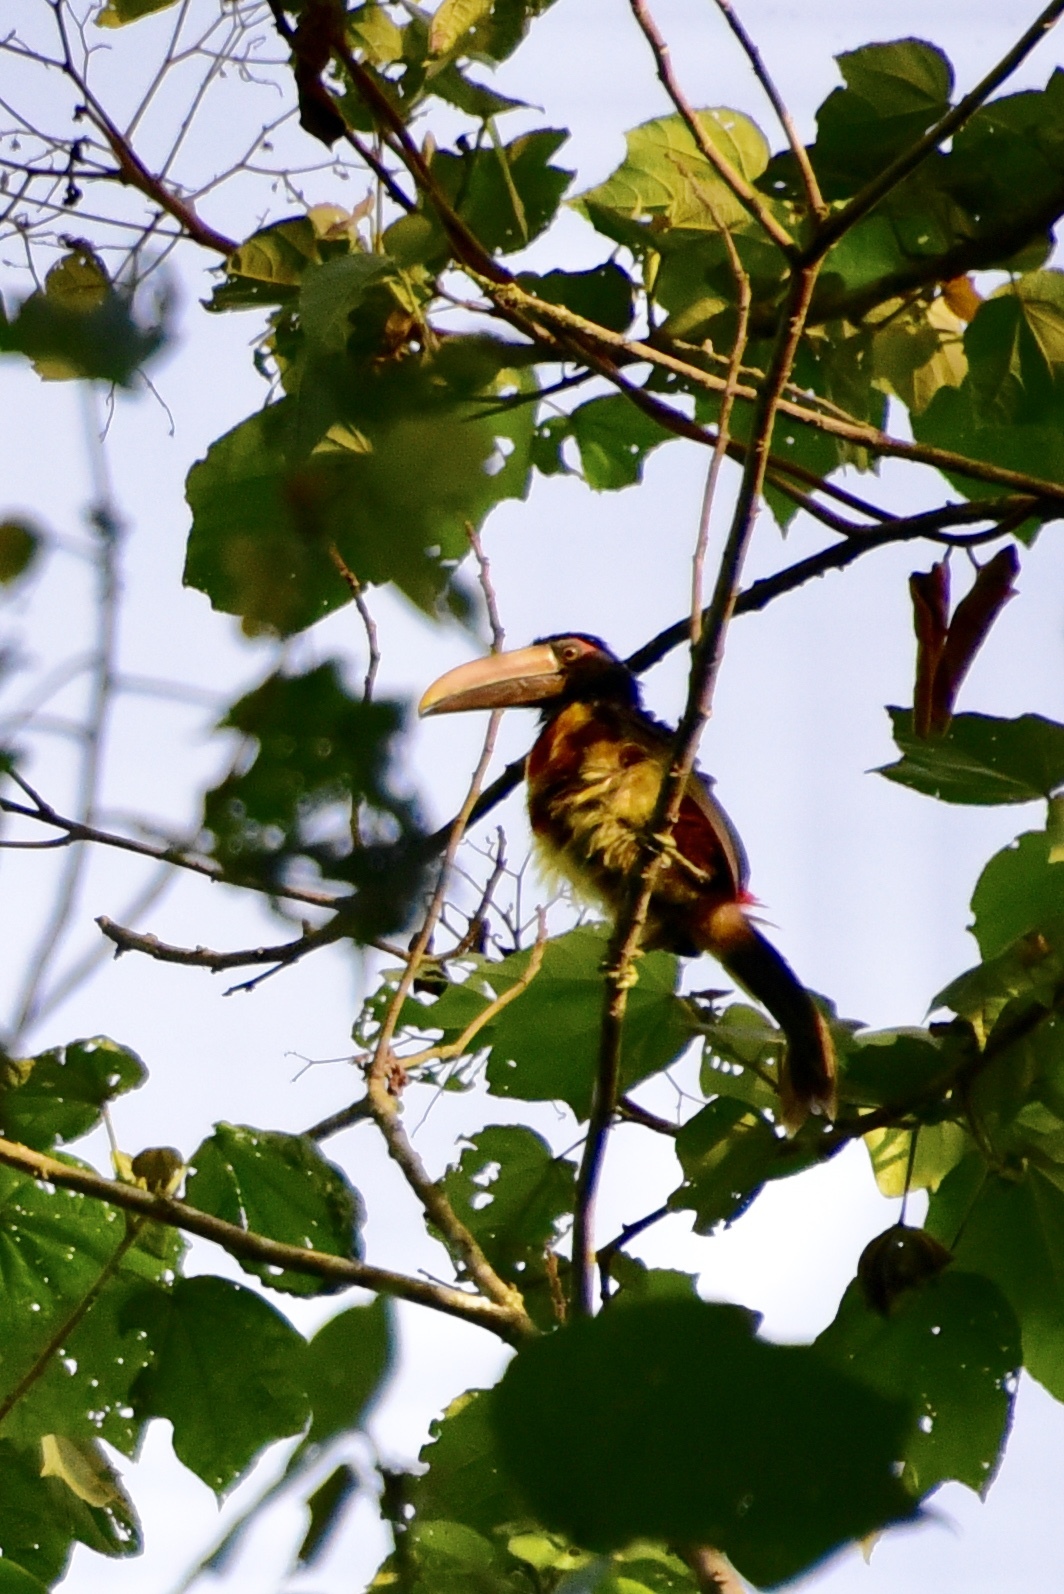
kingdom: Animalia
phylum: Chordata
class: Aves
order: Piciformes
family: Ramphastidae
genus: Pteroglossus
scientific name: Pteroglossus torquatus
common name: Collared aracari
